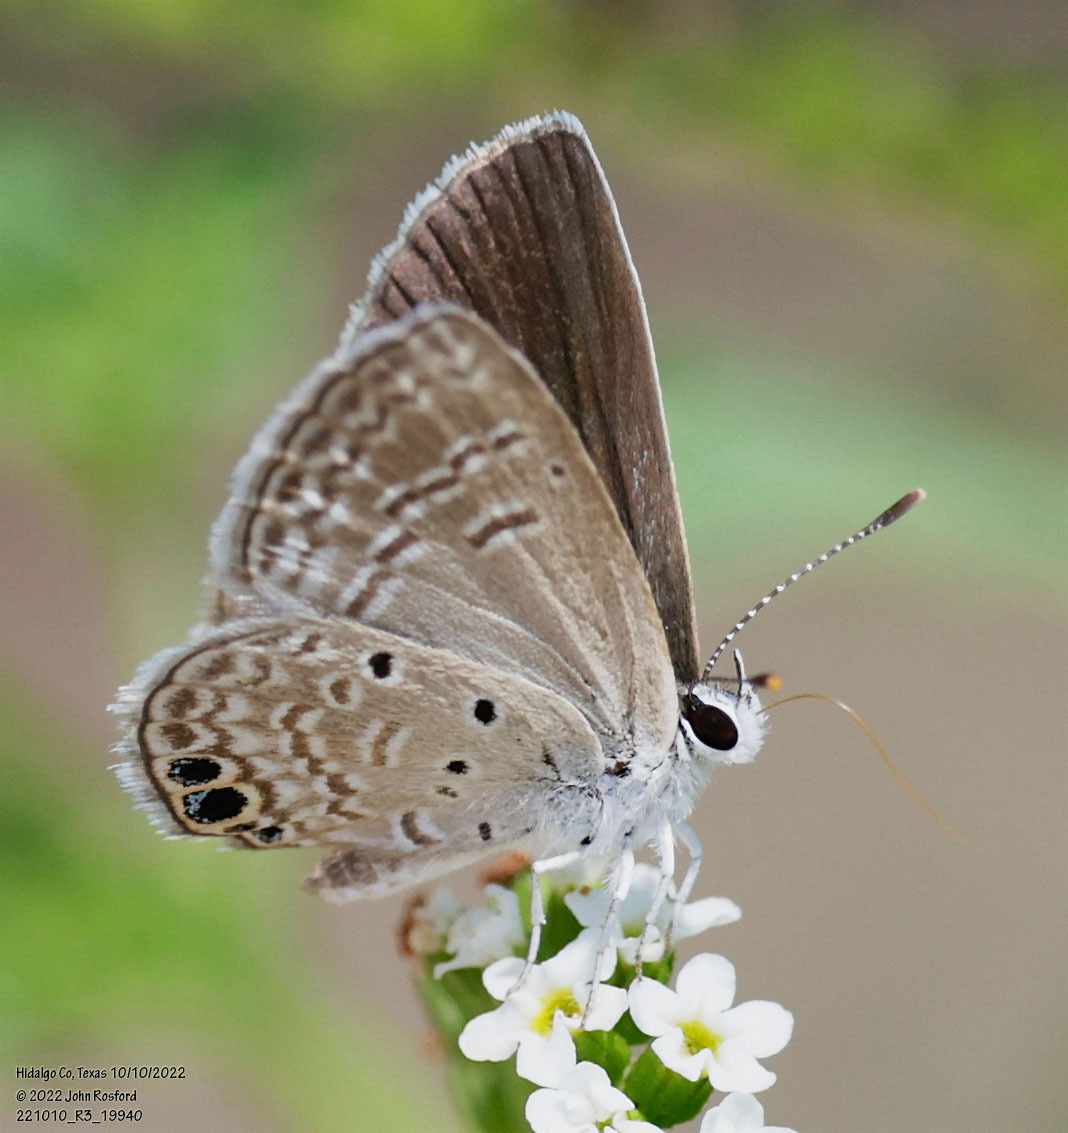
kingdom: Animalia
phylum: Arthropoda
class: Insecta
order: Lepidoptera
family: Lycaenidae
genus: Hemiargus
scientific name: Hemiargus ceraunus
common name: Ceraunus blue
